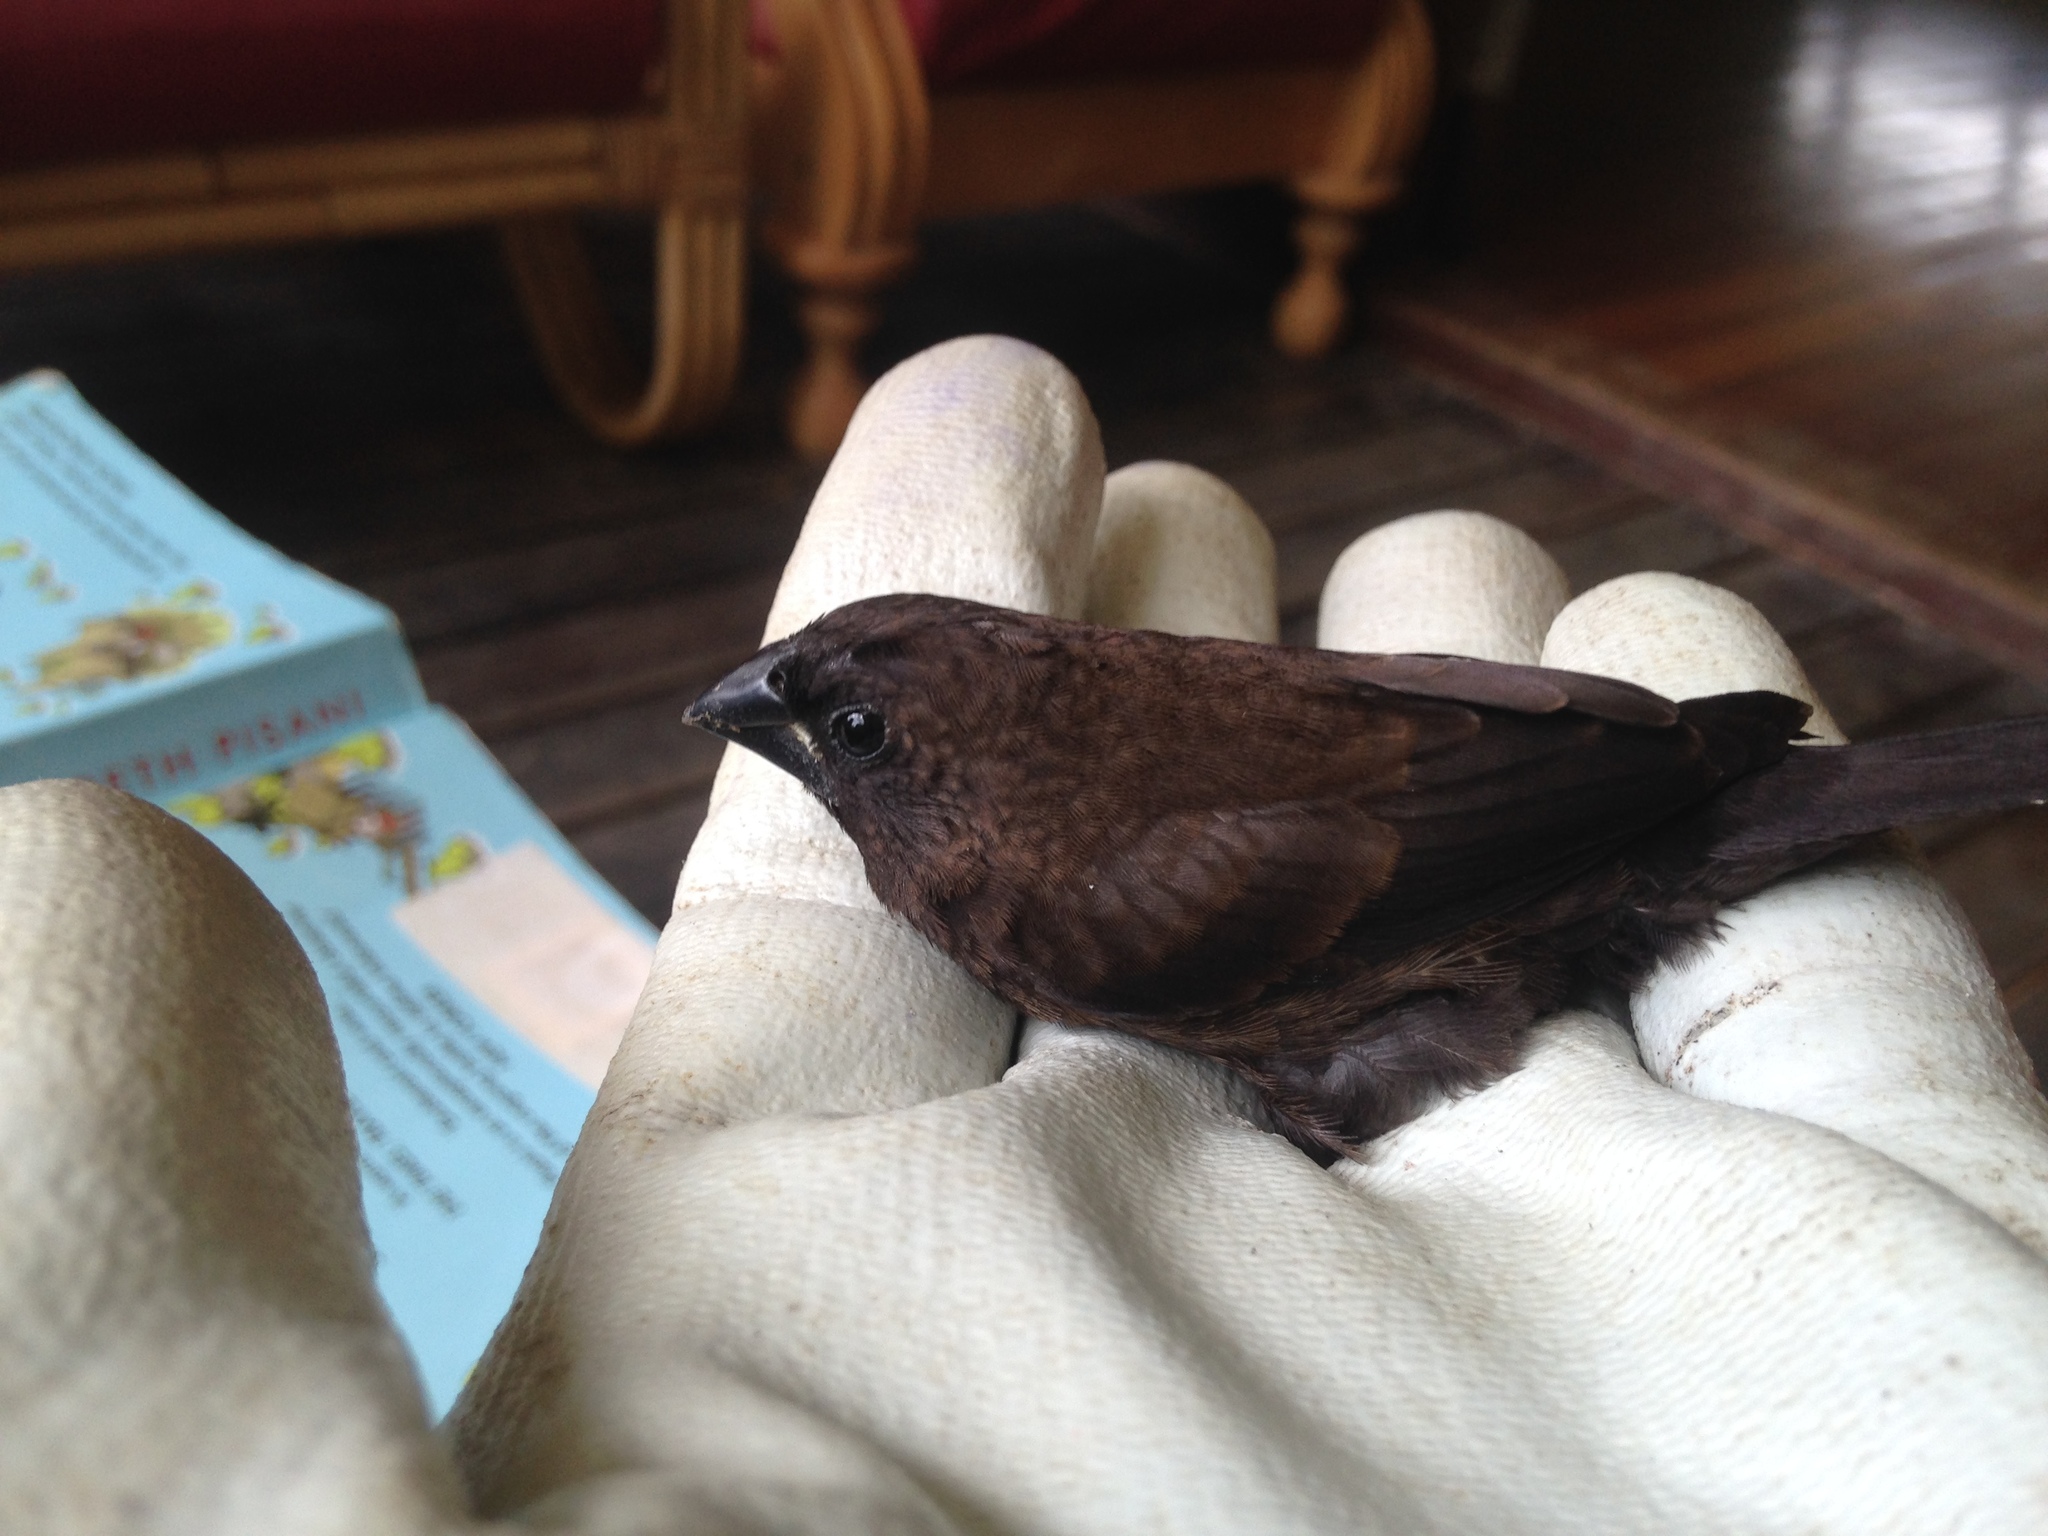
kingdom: Animalia
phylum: Chordata
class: Aves
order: Passeriformes
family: Estrildidae
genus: Lonchura
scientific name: Lonchura fuscans
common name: Dusky munia
